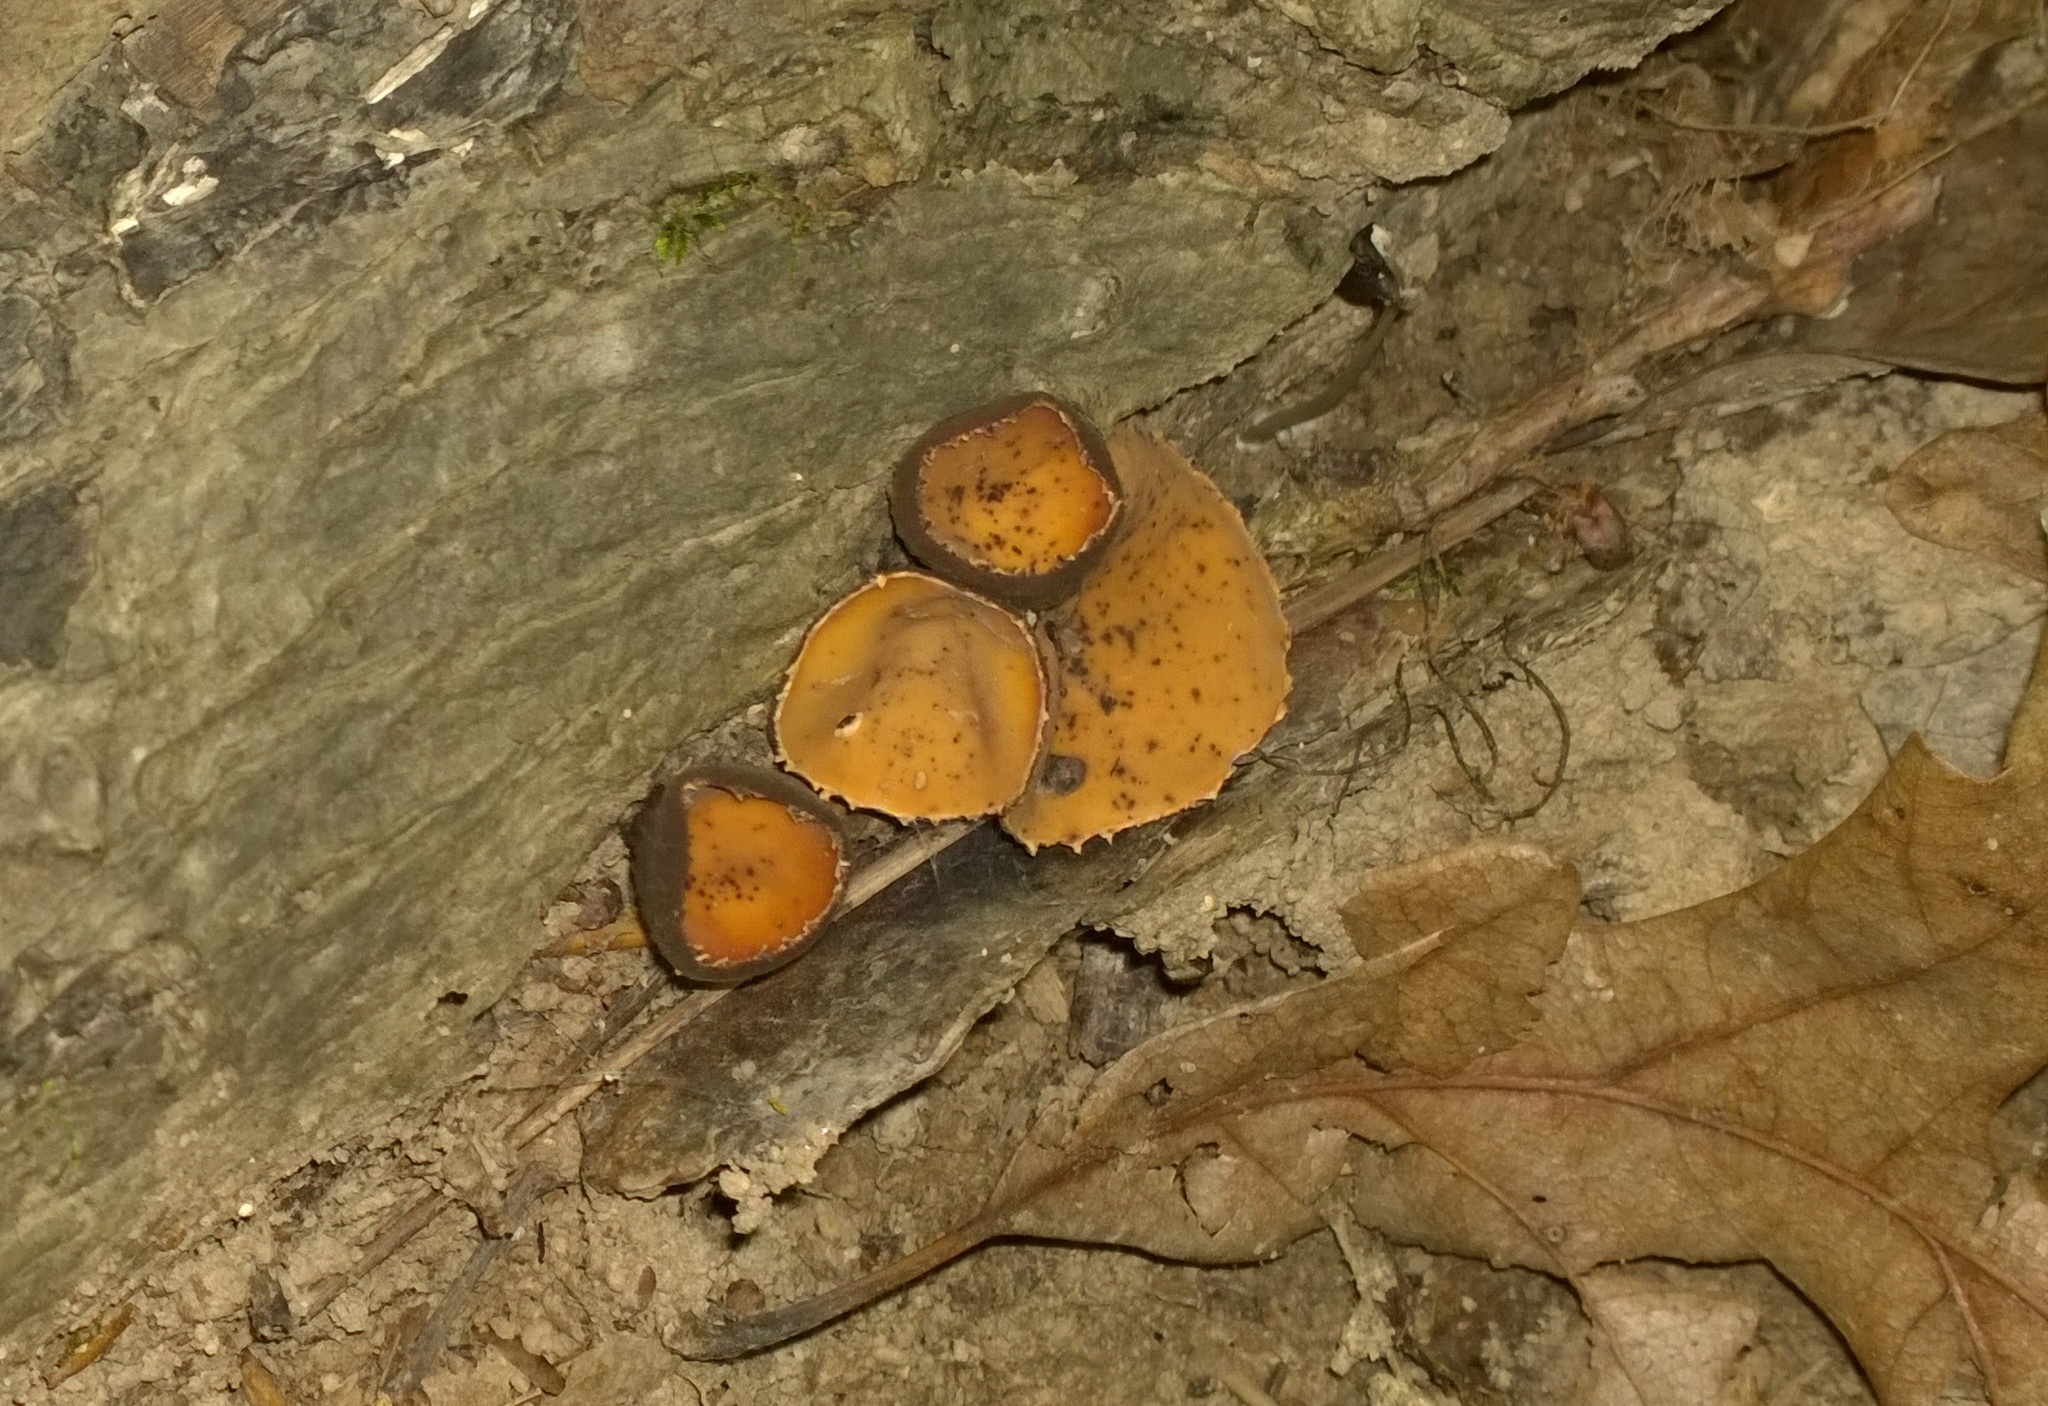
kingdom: Fungi
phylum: Ascomycota
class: Pezizomycetes
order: Pezizales
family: Sarcosomataceae
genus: Galiella
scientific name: Galiella rufa
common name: Hairy rubber cup
